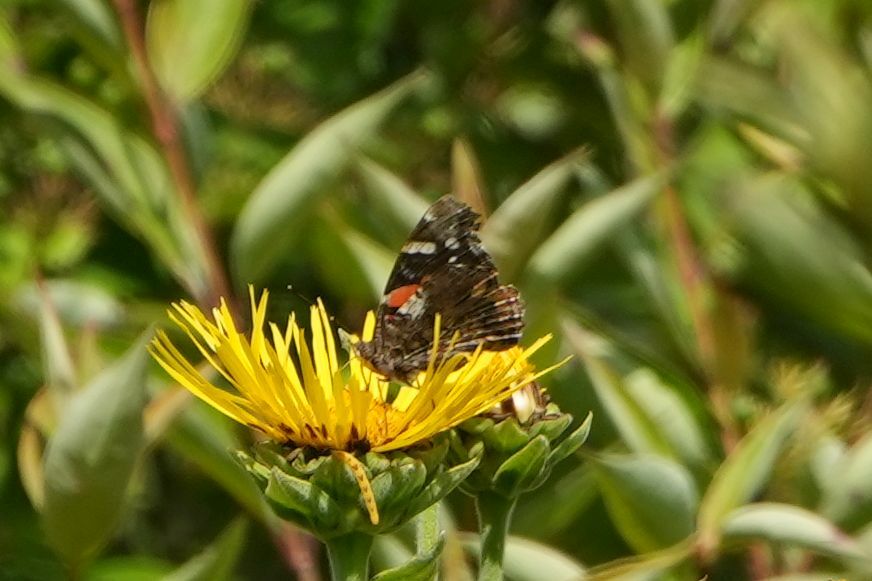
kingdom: Animalia
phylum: Arthropoda
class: Insecta
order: Lepidoptera
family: Nymphalidae
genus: Vanessa
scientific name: Vanessa atalanta
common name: Red admiral
